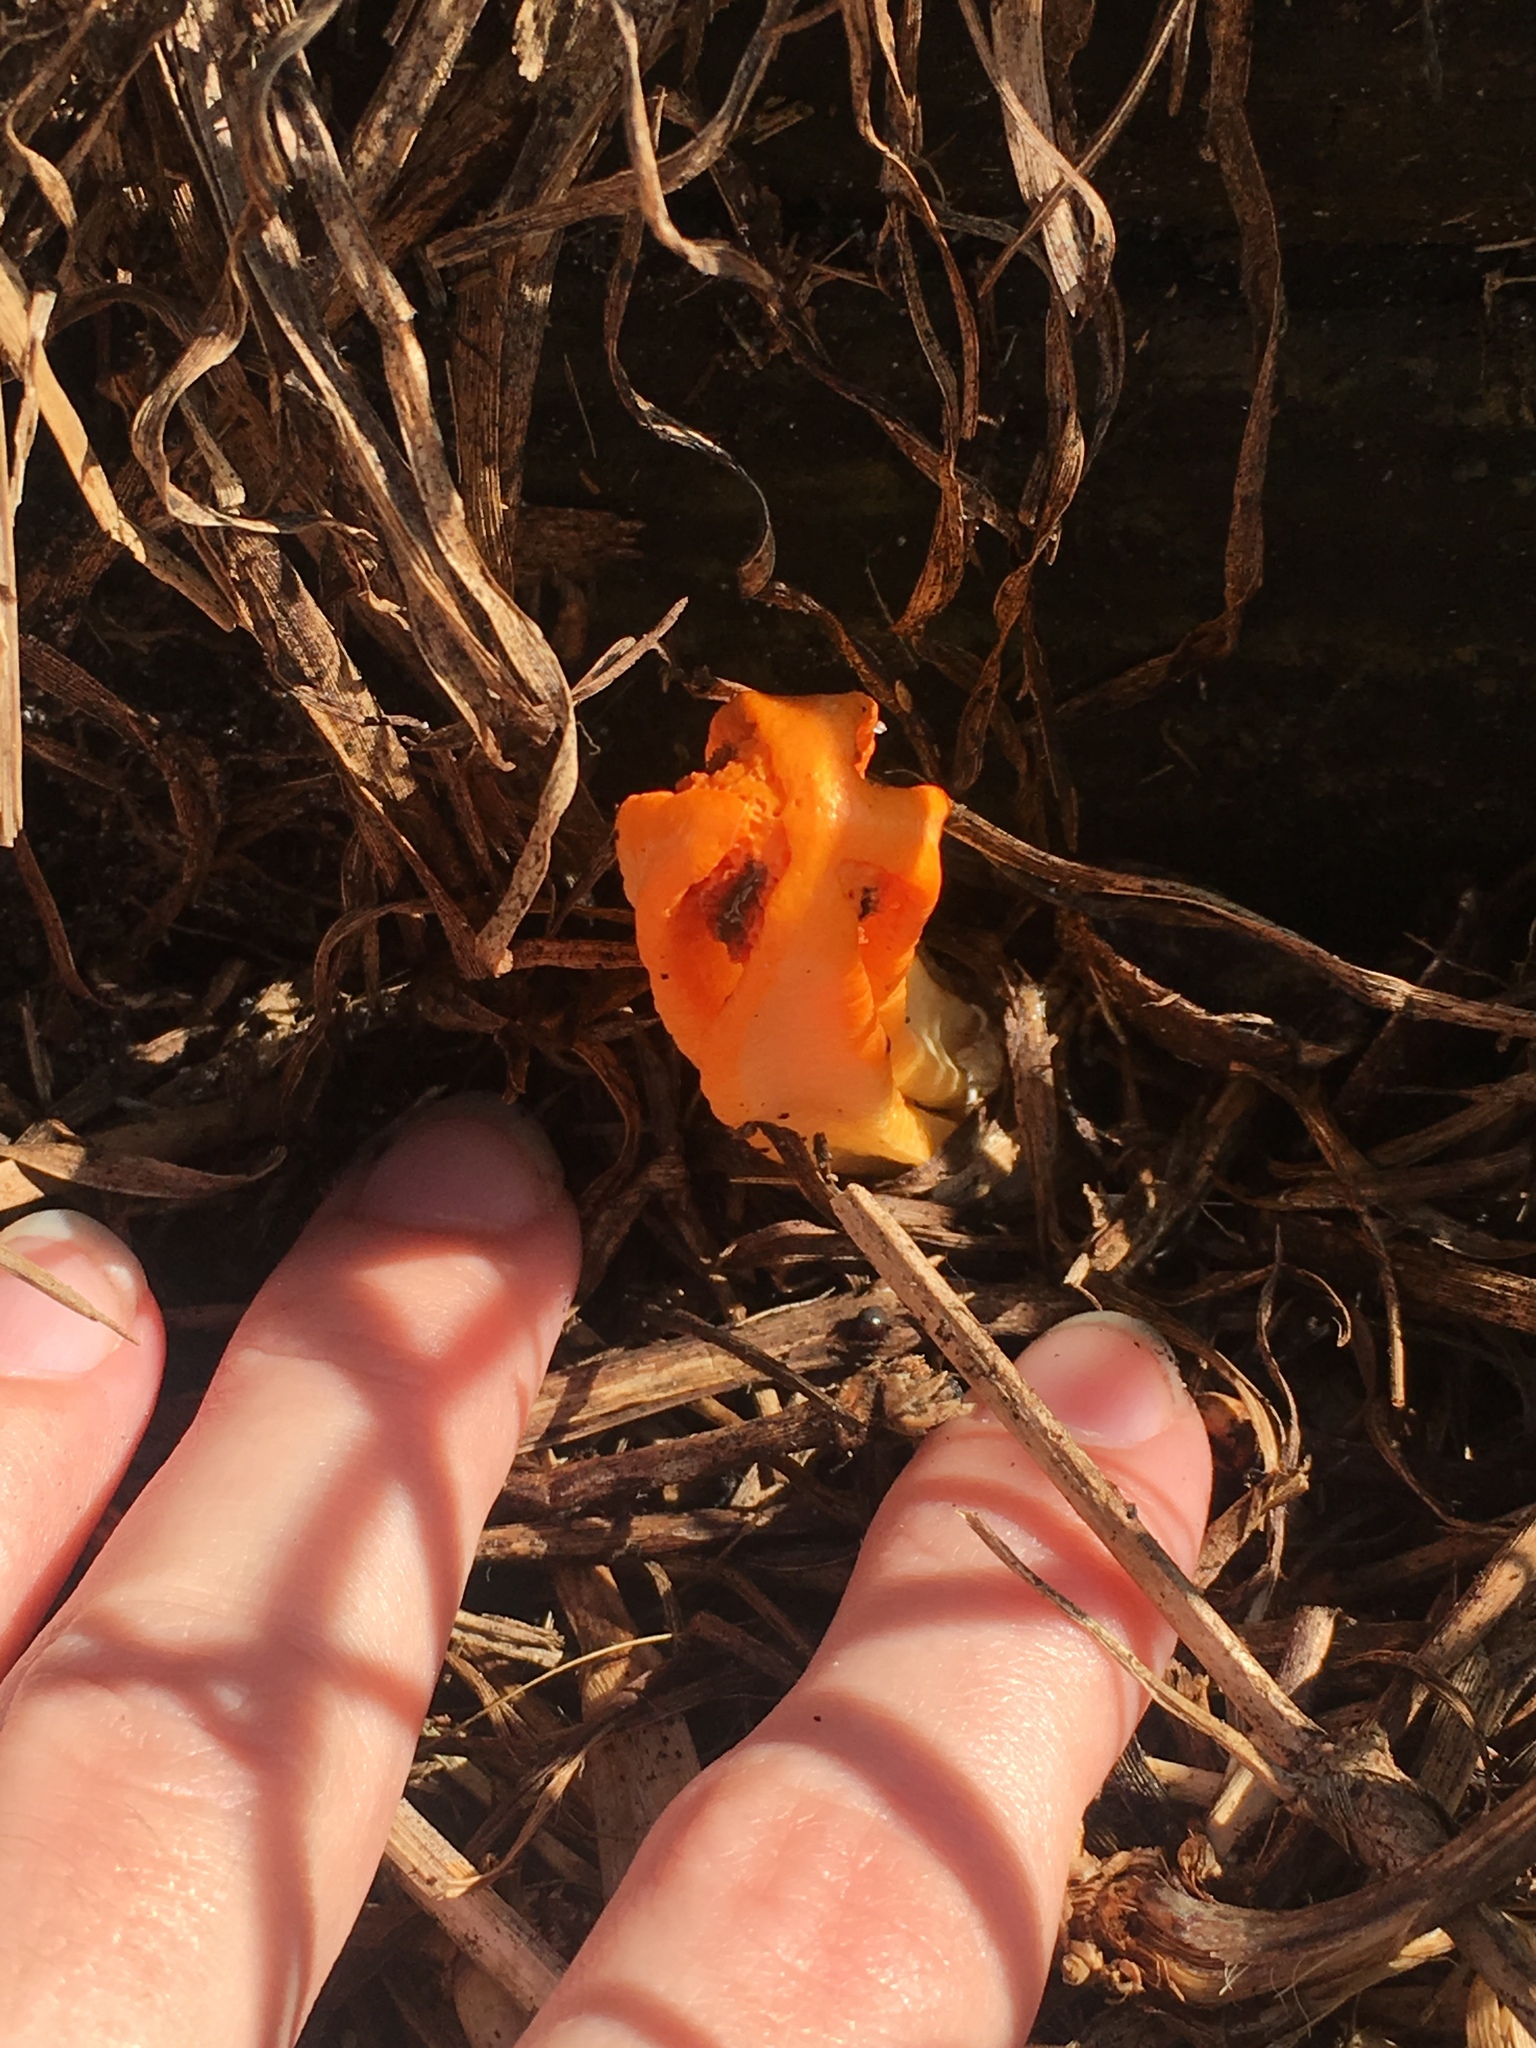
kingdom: Fungi
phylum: Basidiomycota
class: Agaricomycetes
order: Phallales
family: Phallaceae
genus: Laternea
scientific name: Laternea dringii
